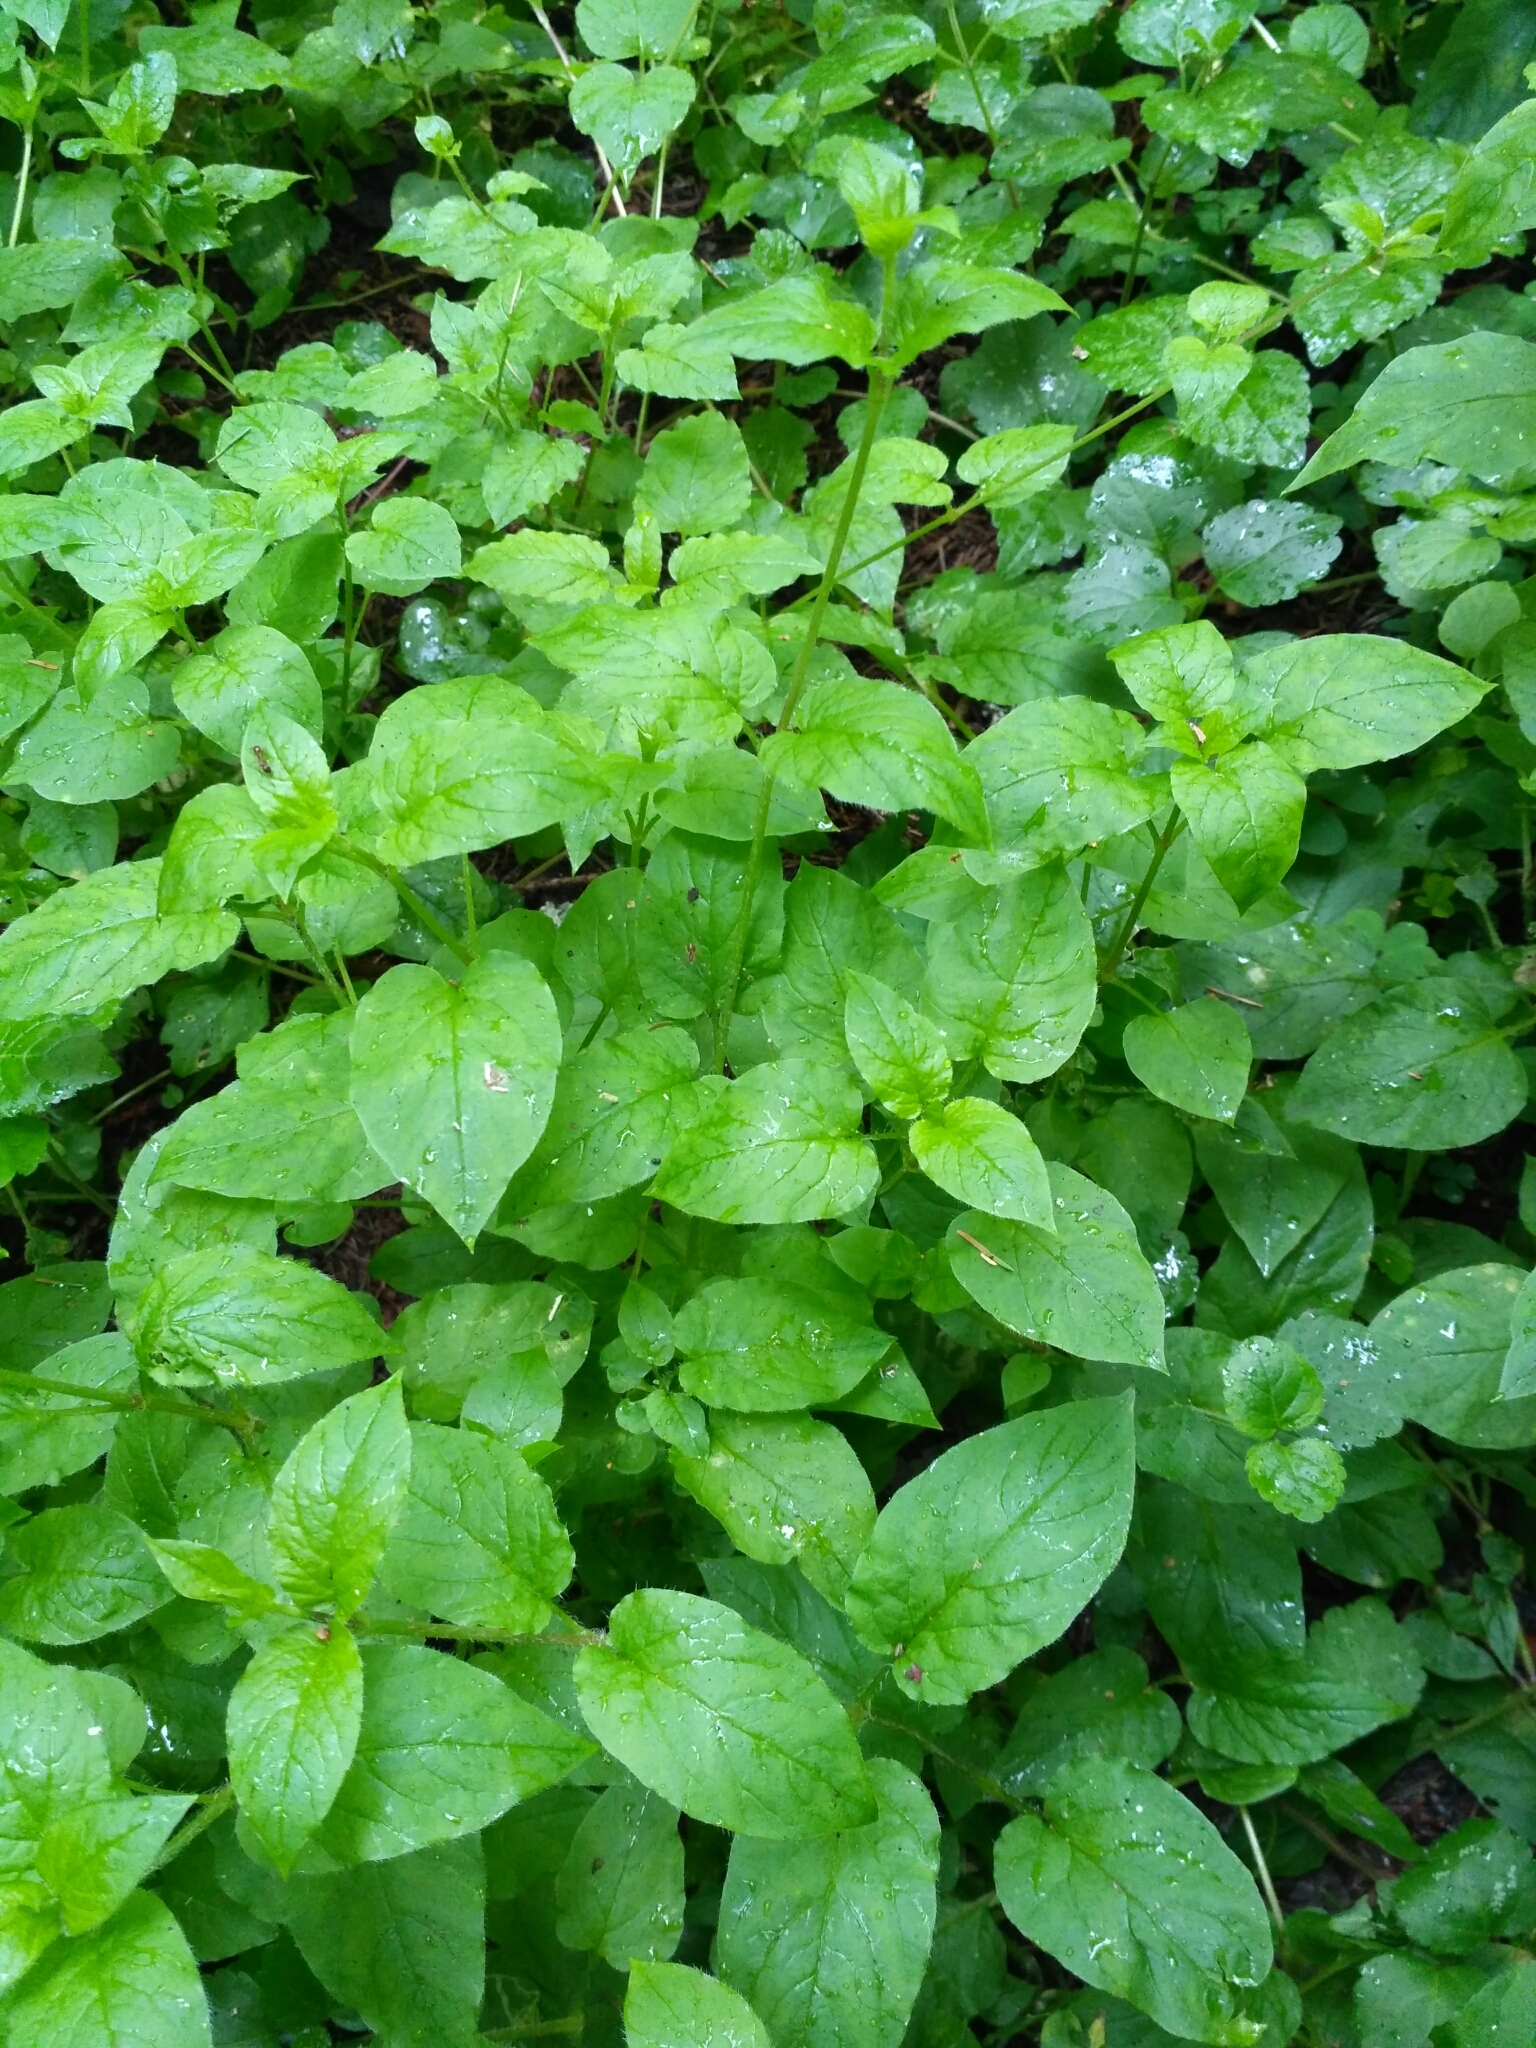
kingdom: Plantae
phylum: Tracheophyta
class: Magnoliopsida
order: Caryophyllales
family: Caryophyllaceae
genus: Stellaria
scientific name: Stellaria nemorum
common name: Wood stitchwort
